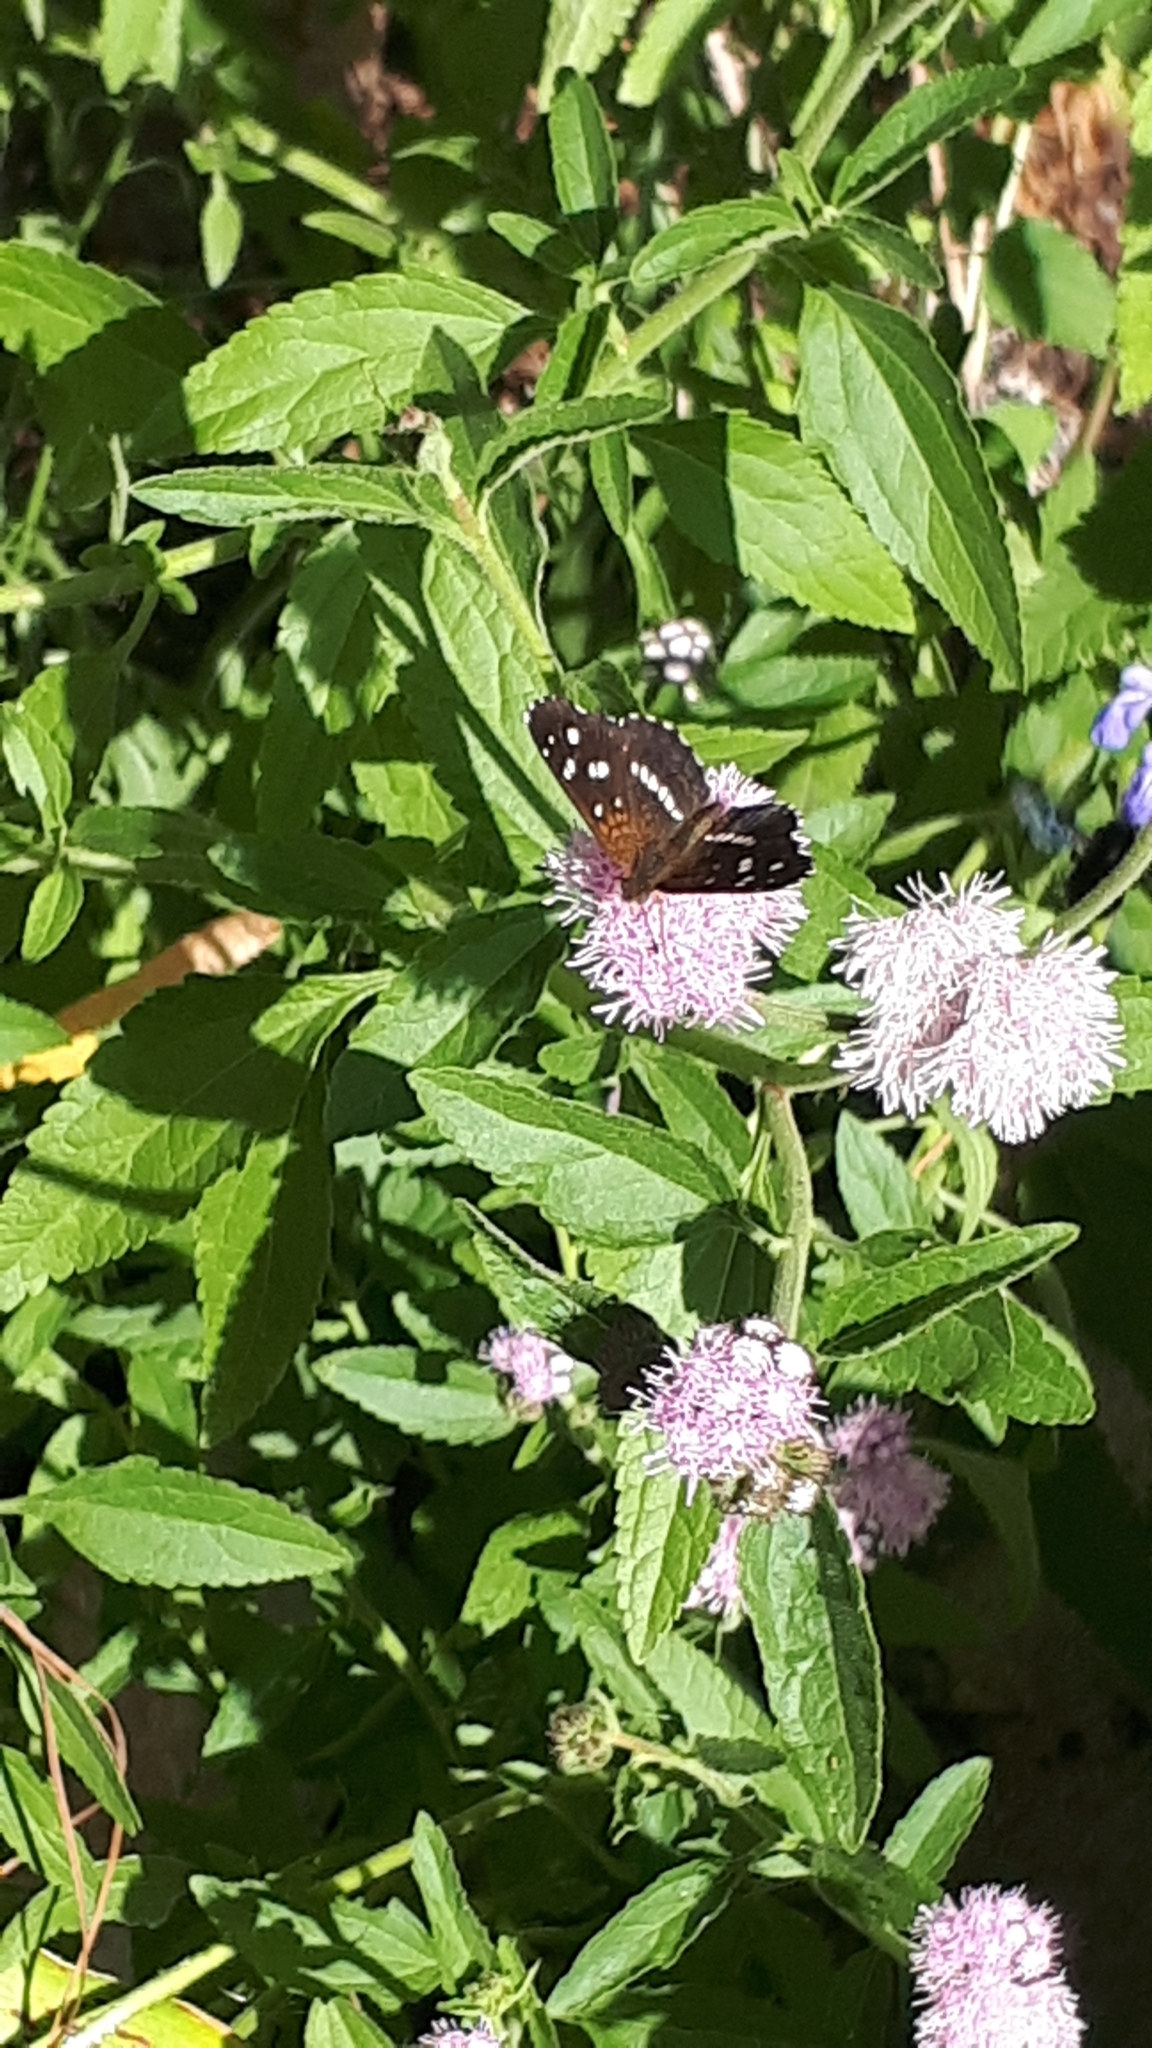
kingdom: Animalia
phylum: Arthropoda
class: Insecta
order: Lepidoptera
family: Nymphalidae
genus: Ortilia
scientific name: Ortilia ithra
